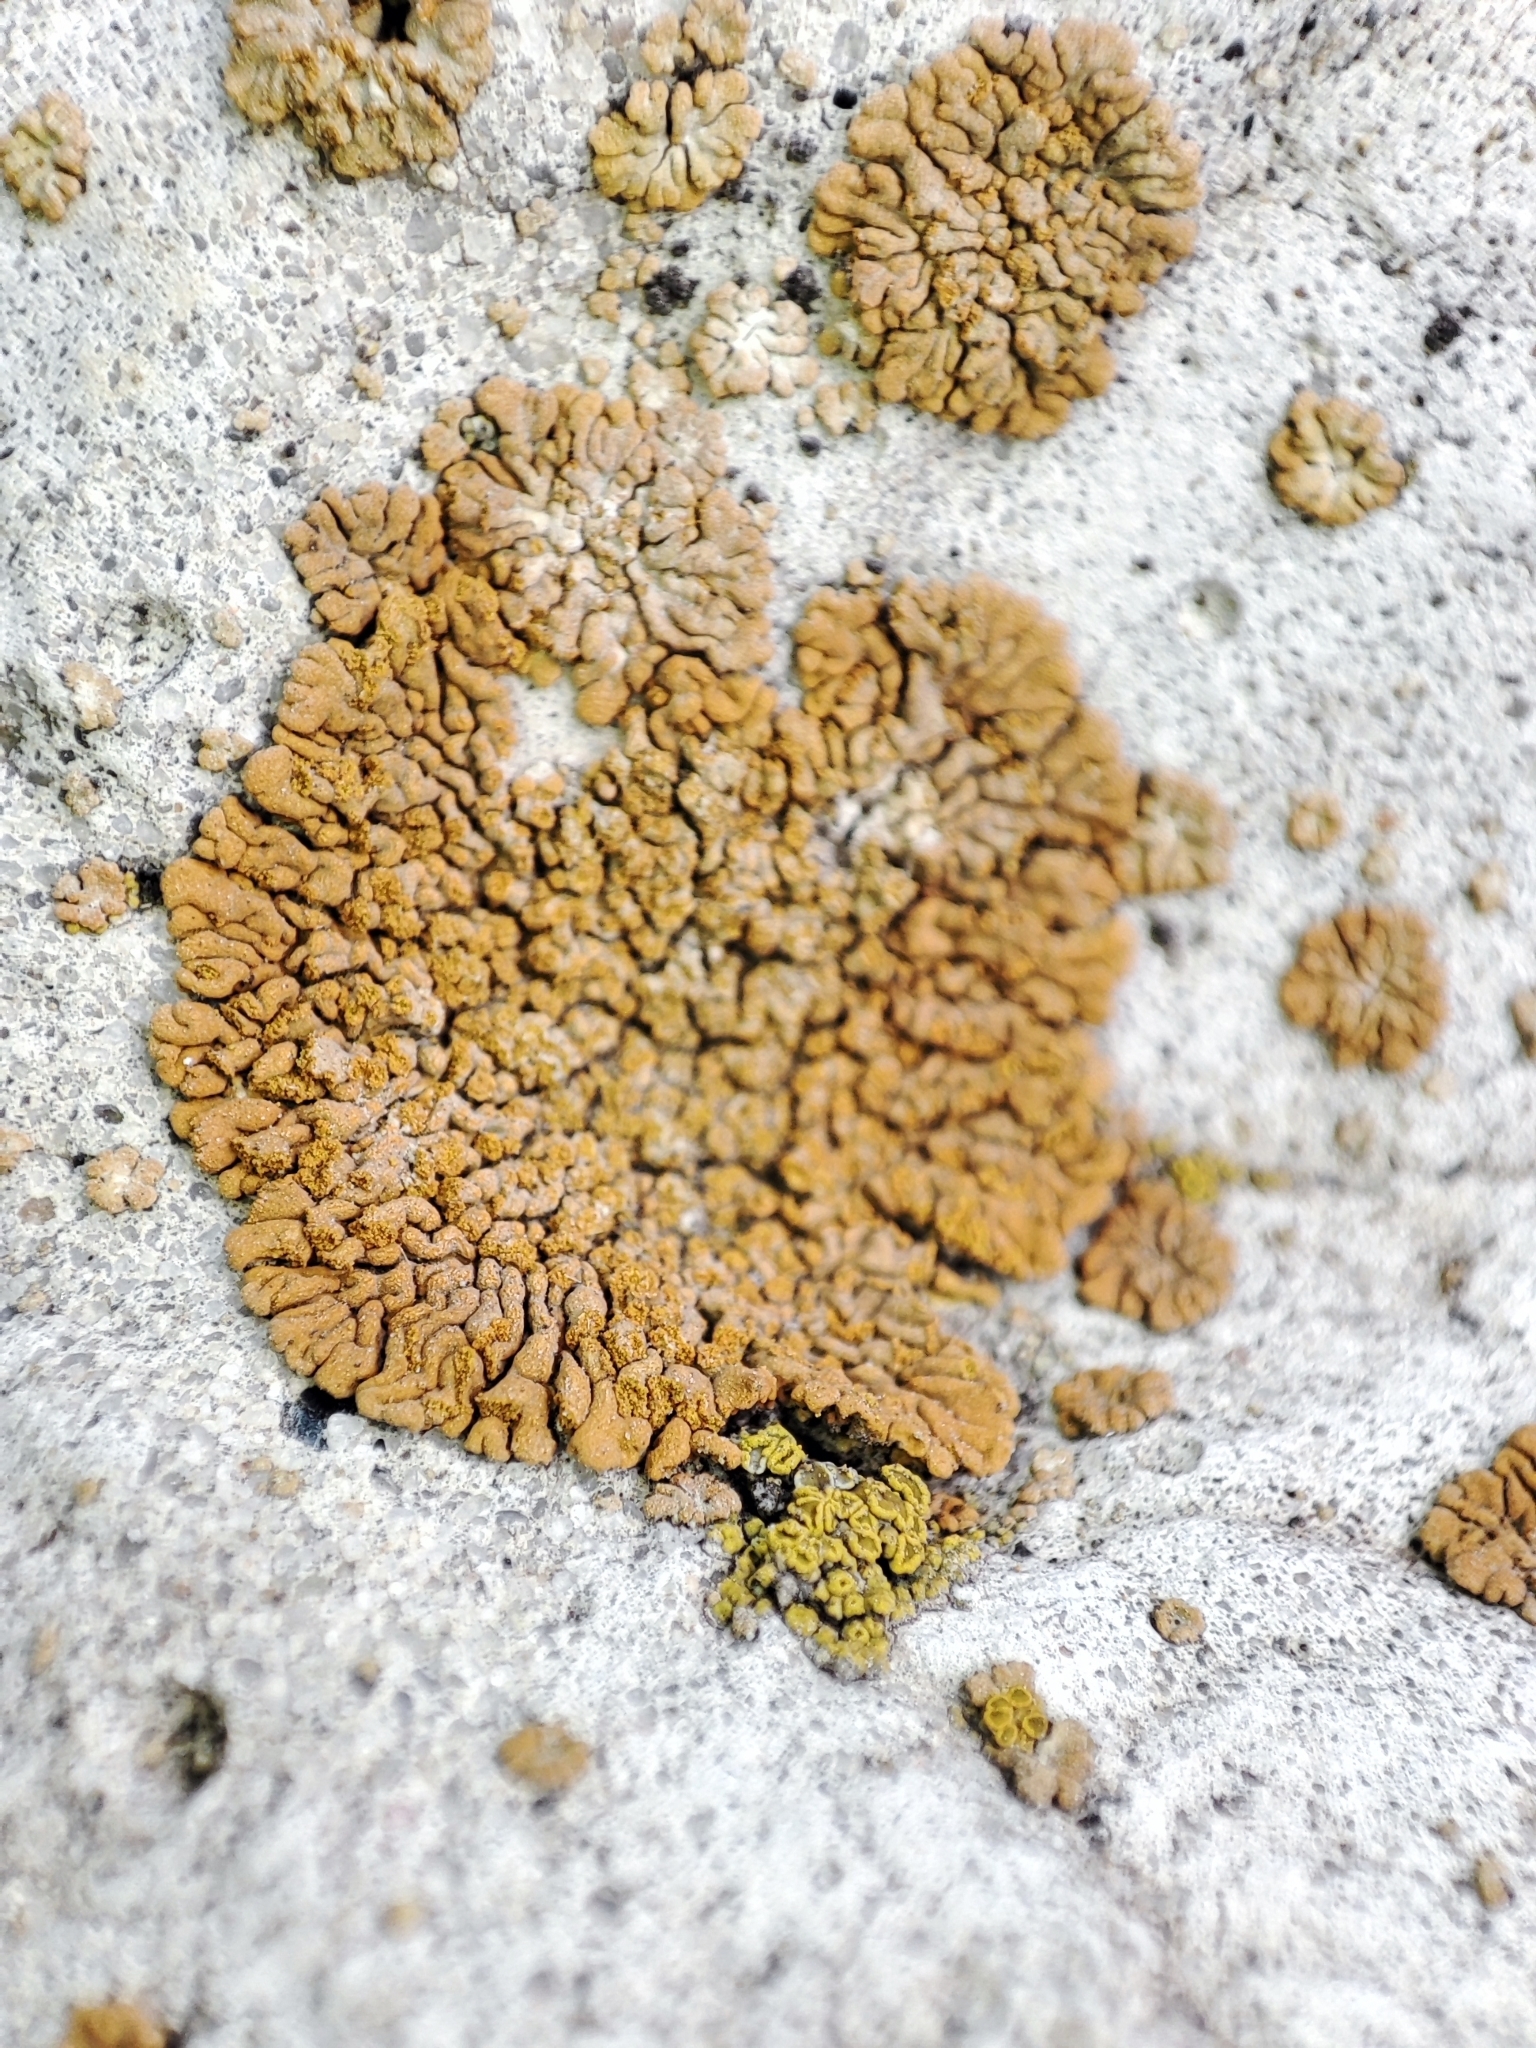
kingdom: Fungi
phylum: Ascomycota
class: Lecanoromycetes
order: Teloschistales
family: Teloschistaceae
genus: Calogaya
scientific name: Calogaya decipiens
